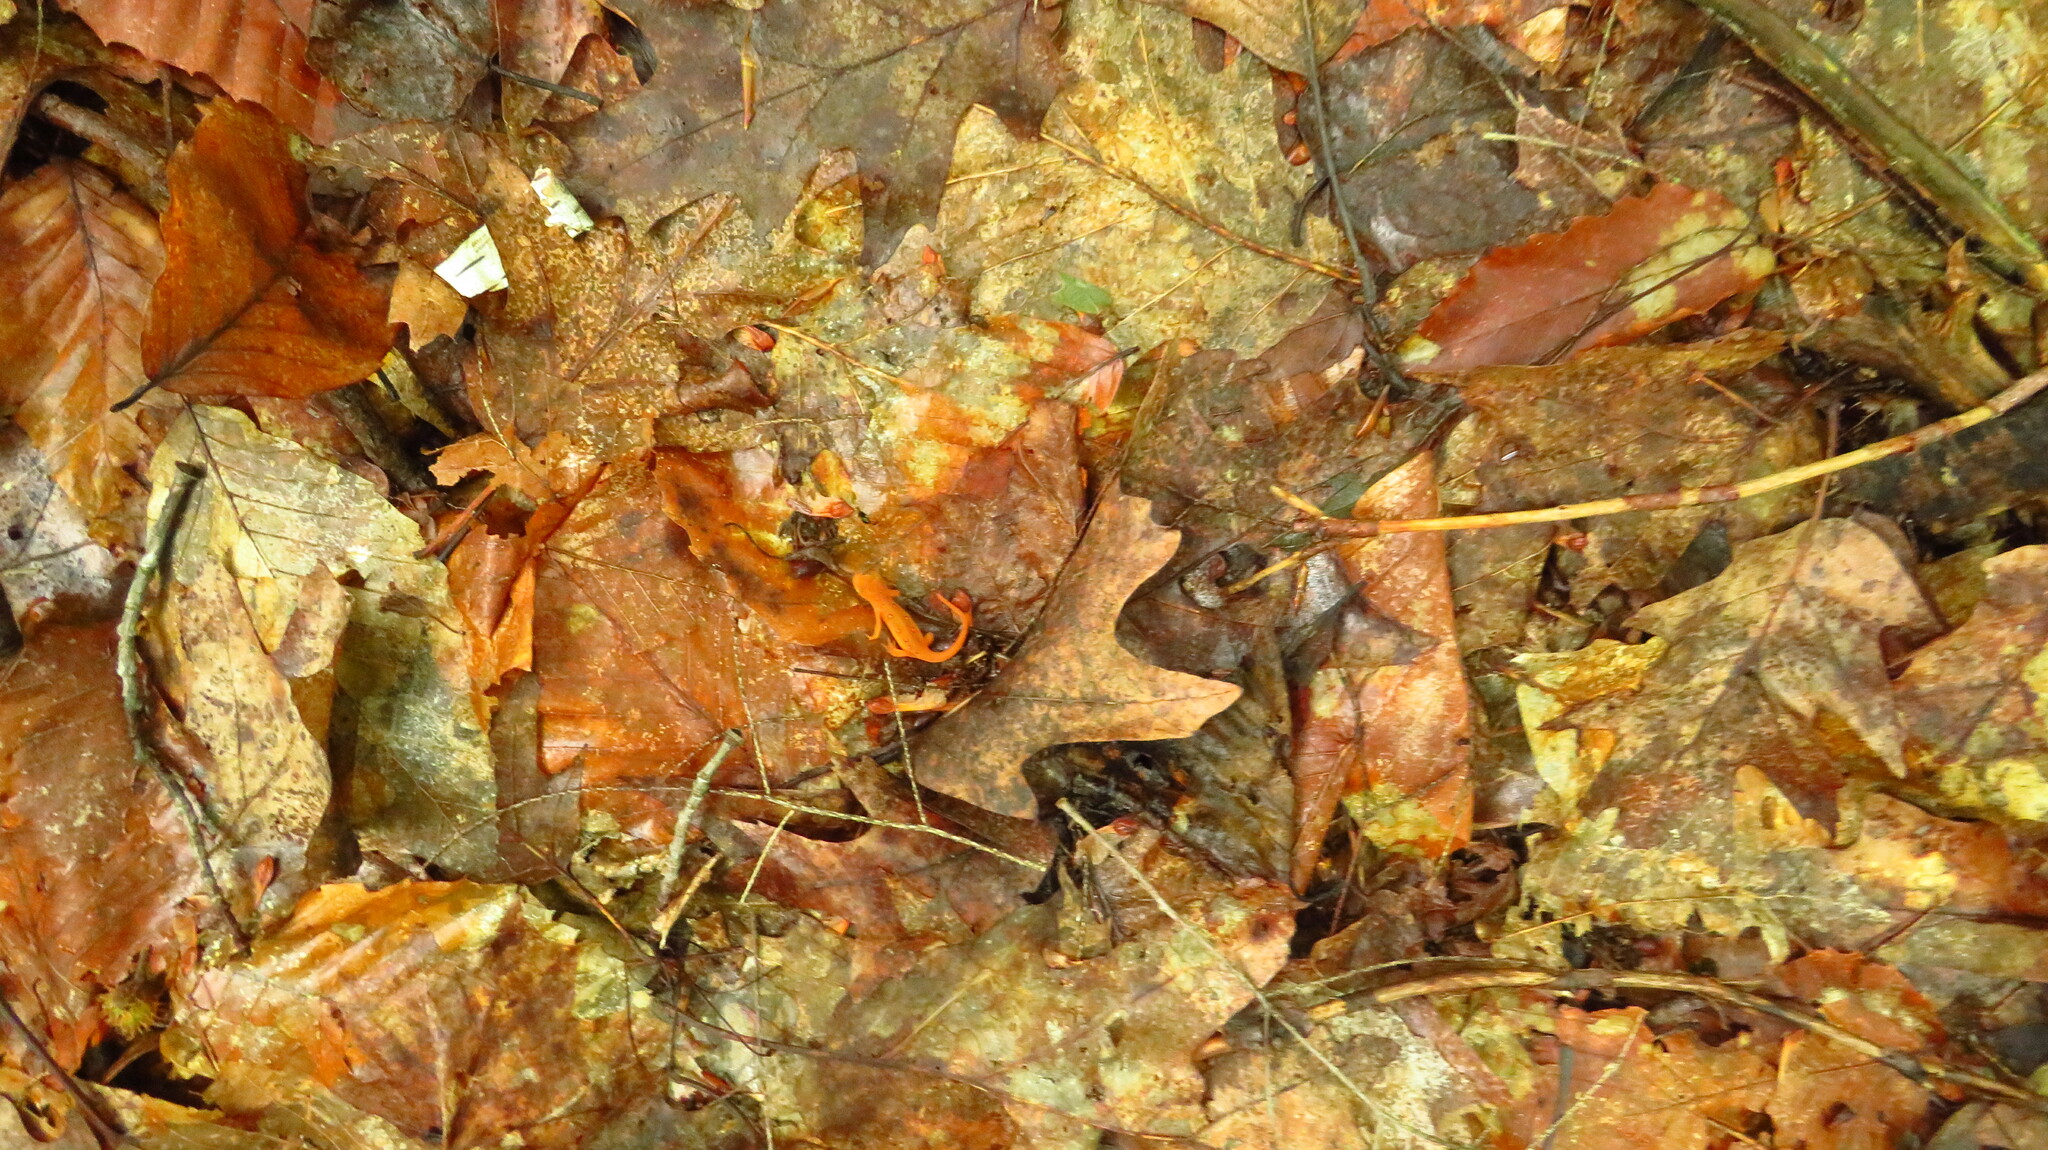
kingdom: Animalia
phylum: Chordata
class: Amphibia
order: Caudata
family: Salamandridae
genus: Notophthalmus
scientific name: Notophthalmus viridescens
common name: Eastern newt
